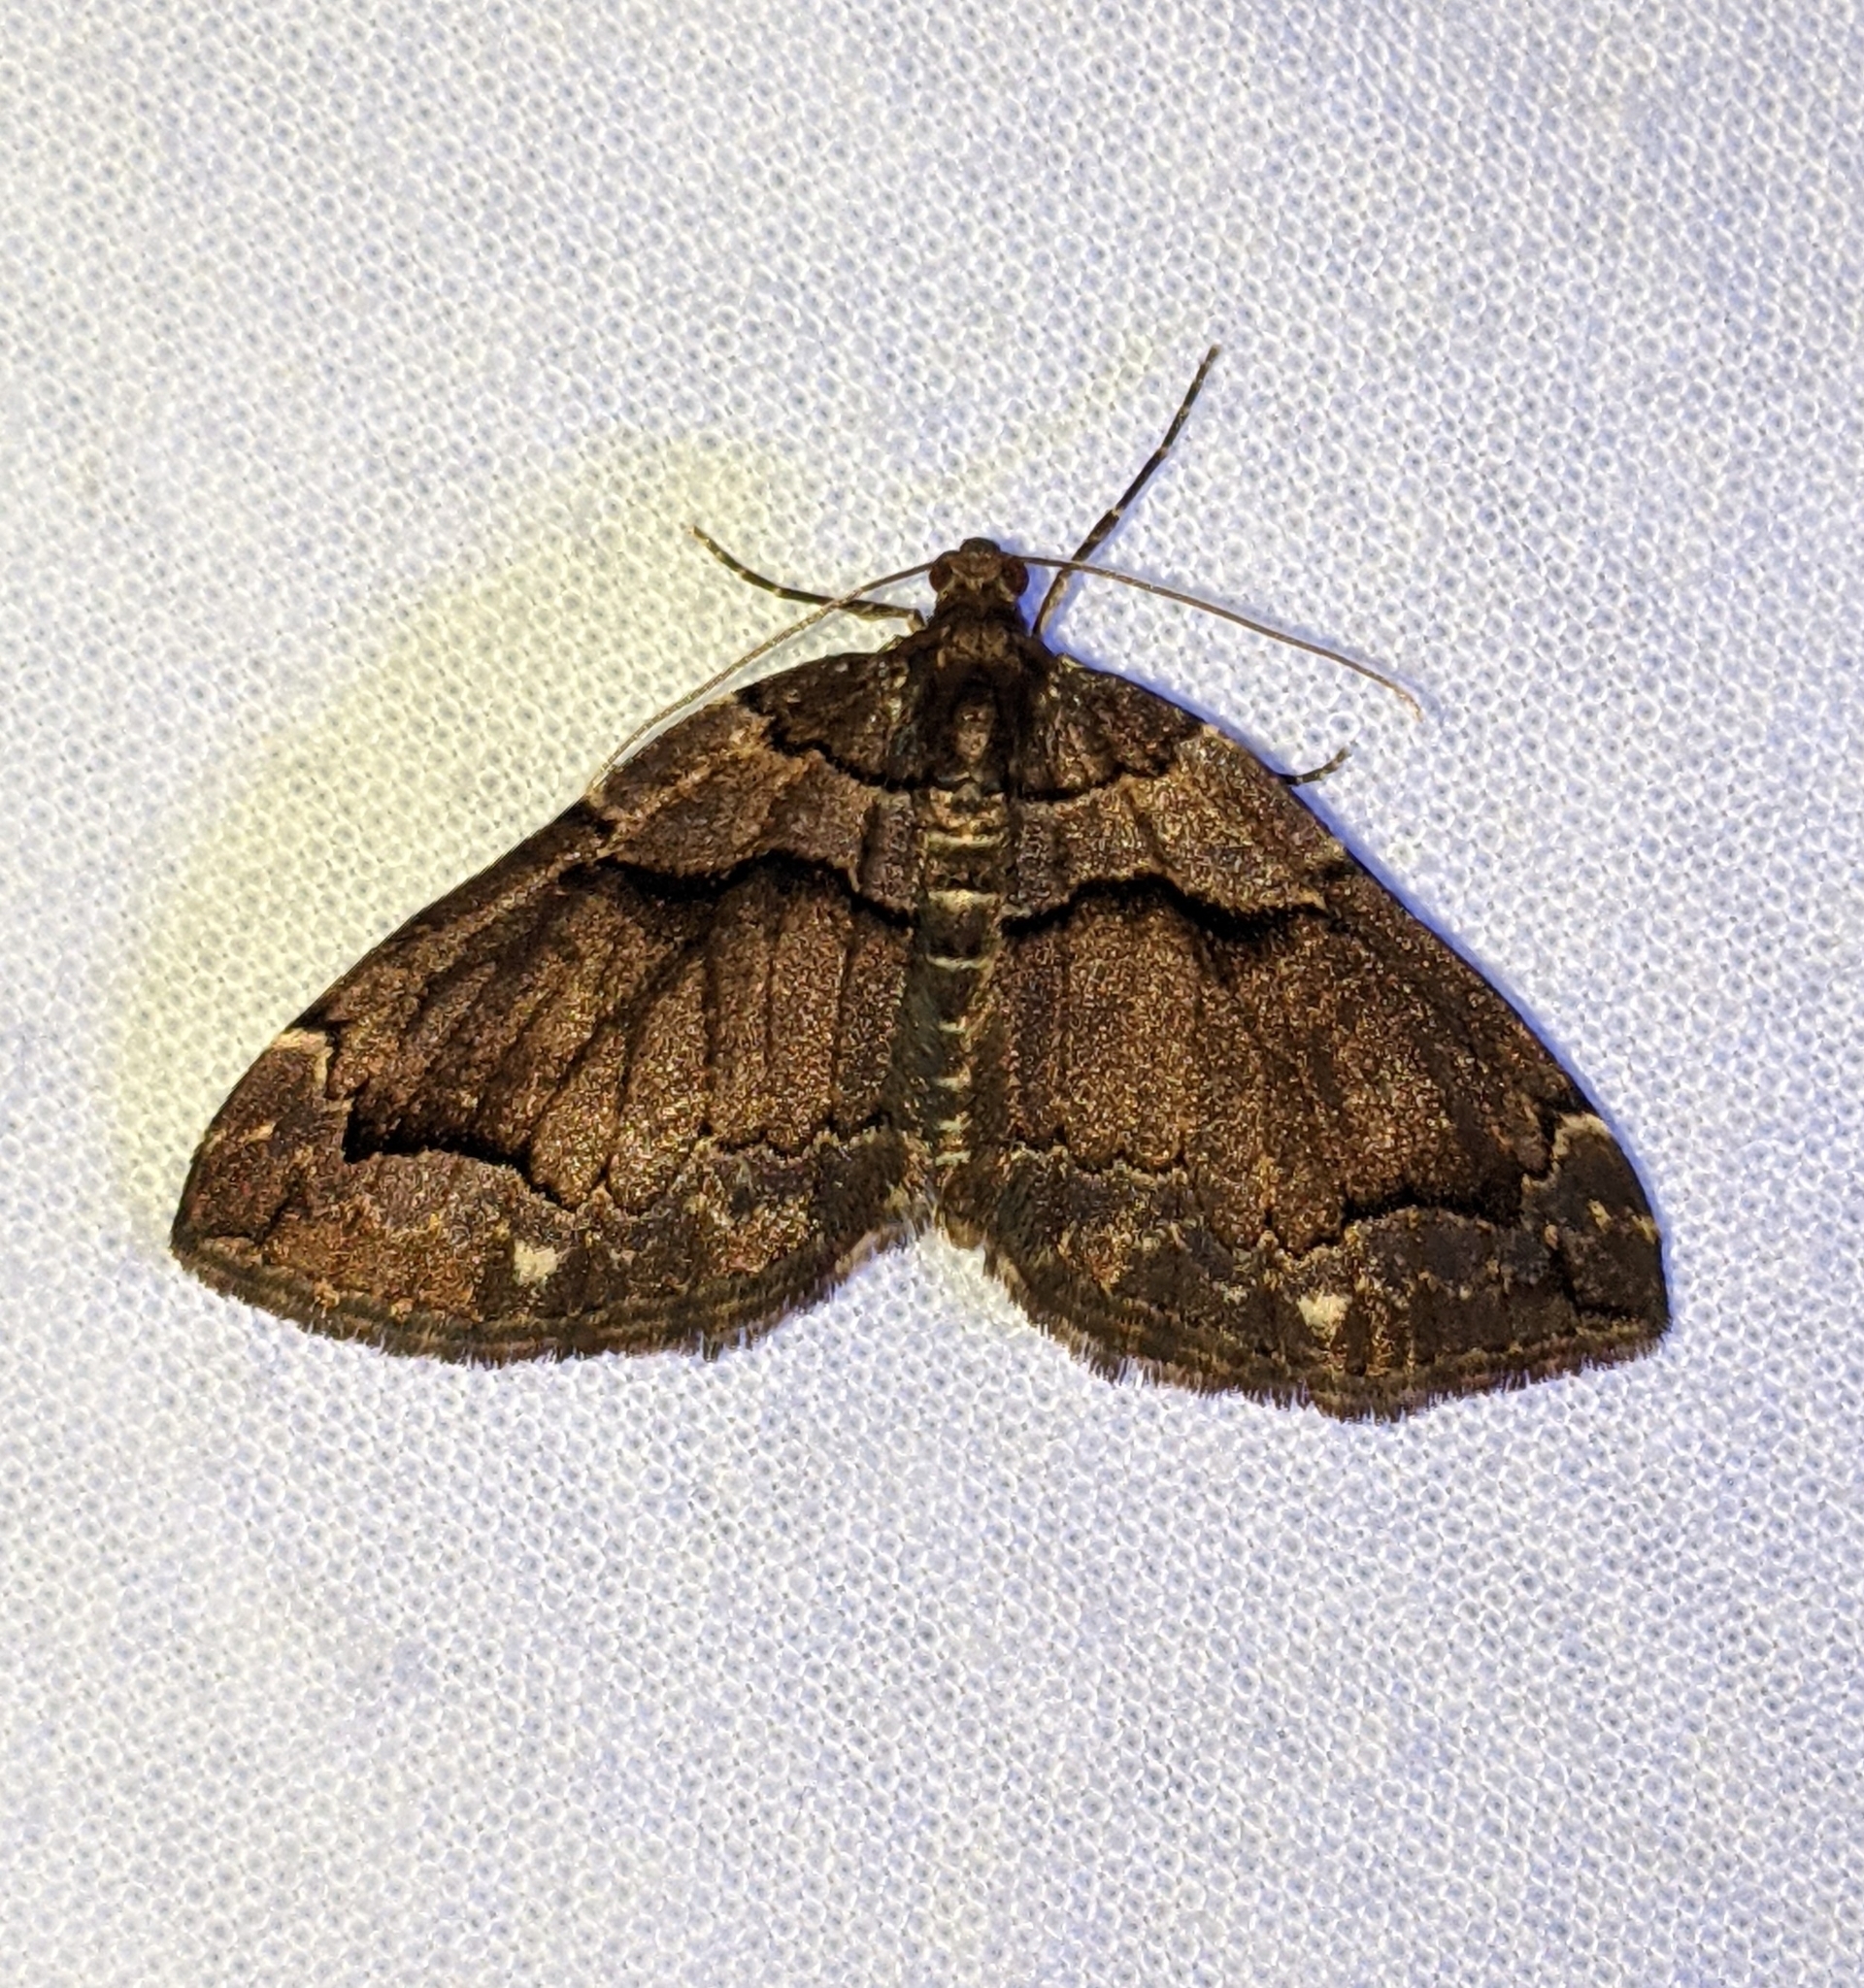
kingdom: Animalia
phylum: Arthropoda
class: Insecta
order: Lepidoptera
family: Geometridae
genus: Anticlea
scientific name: Anticlea vasiliata
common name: Variable carpet
